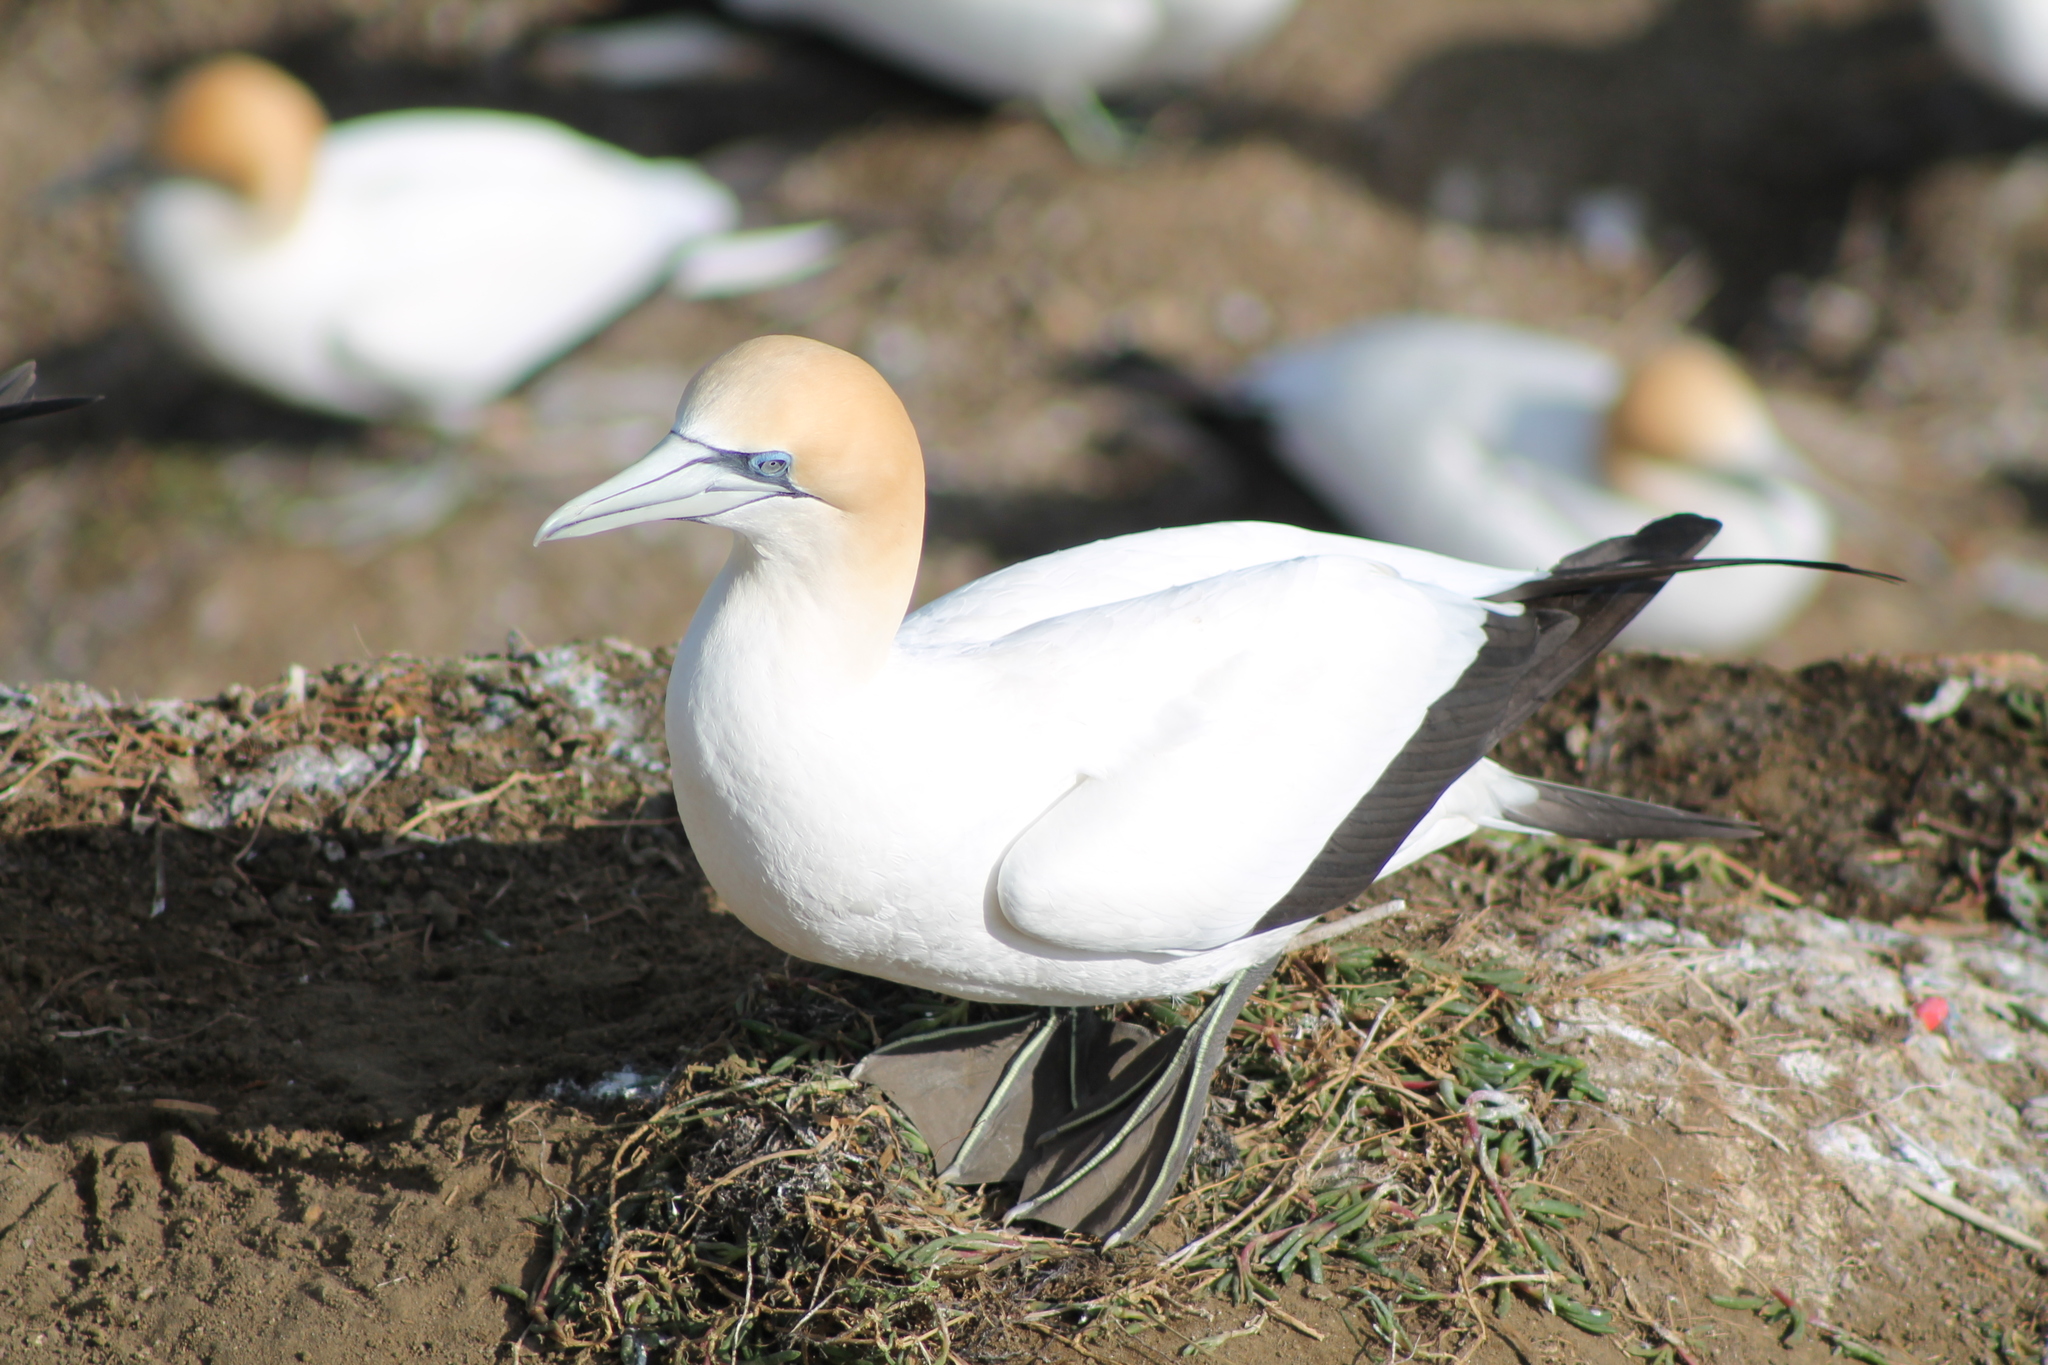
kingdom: Animalia
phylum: Chordata
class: Aves
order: Suliformes
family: Sulidae
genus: Morus
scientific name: Morus serrator
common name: Australasian gannet
